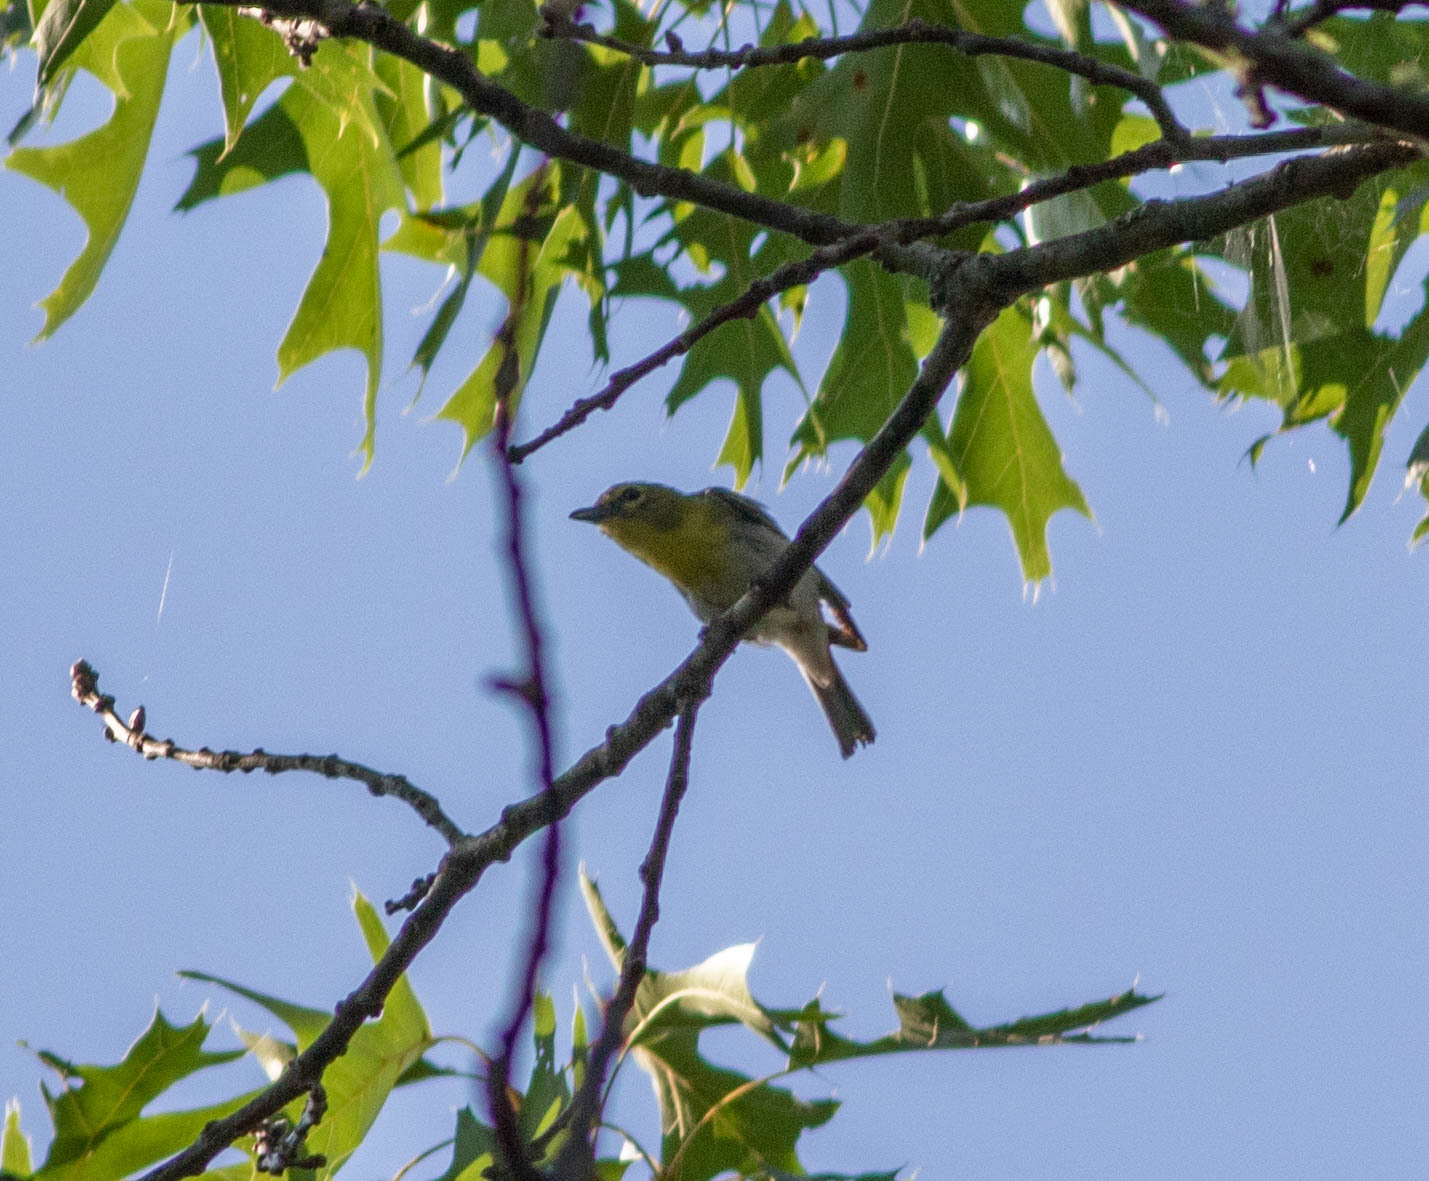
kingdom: Animalia
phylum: Chordata
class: Aves
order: Passeriformes
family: Vireonidae
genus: Vireo
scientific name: Vireo flavifrons
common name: Yellow-throated vireo
